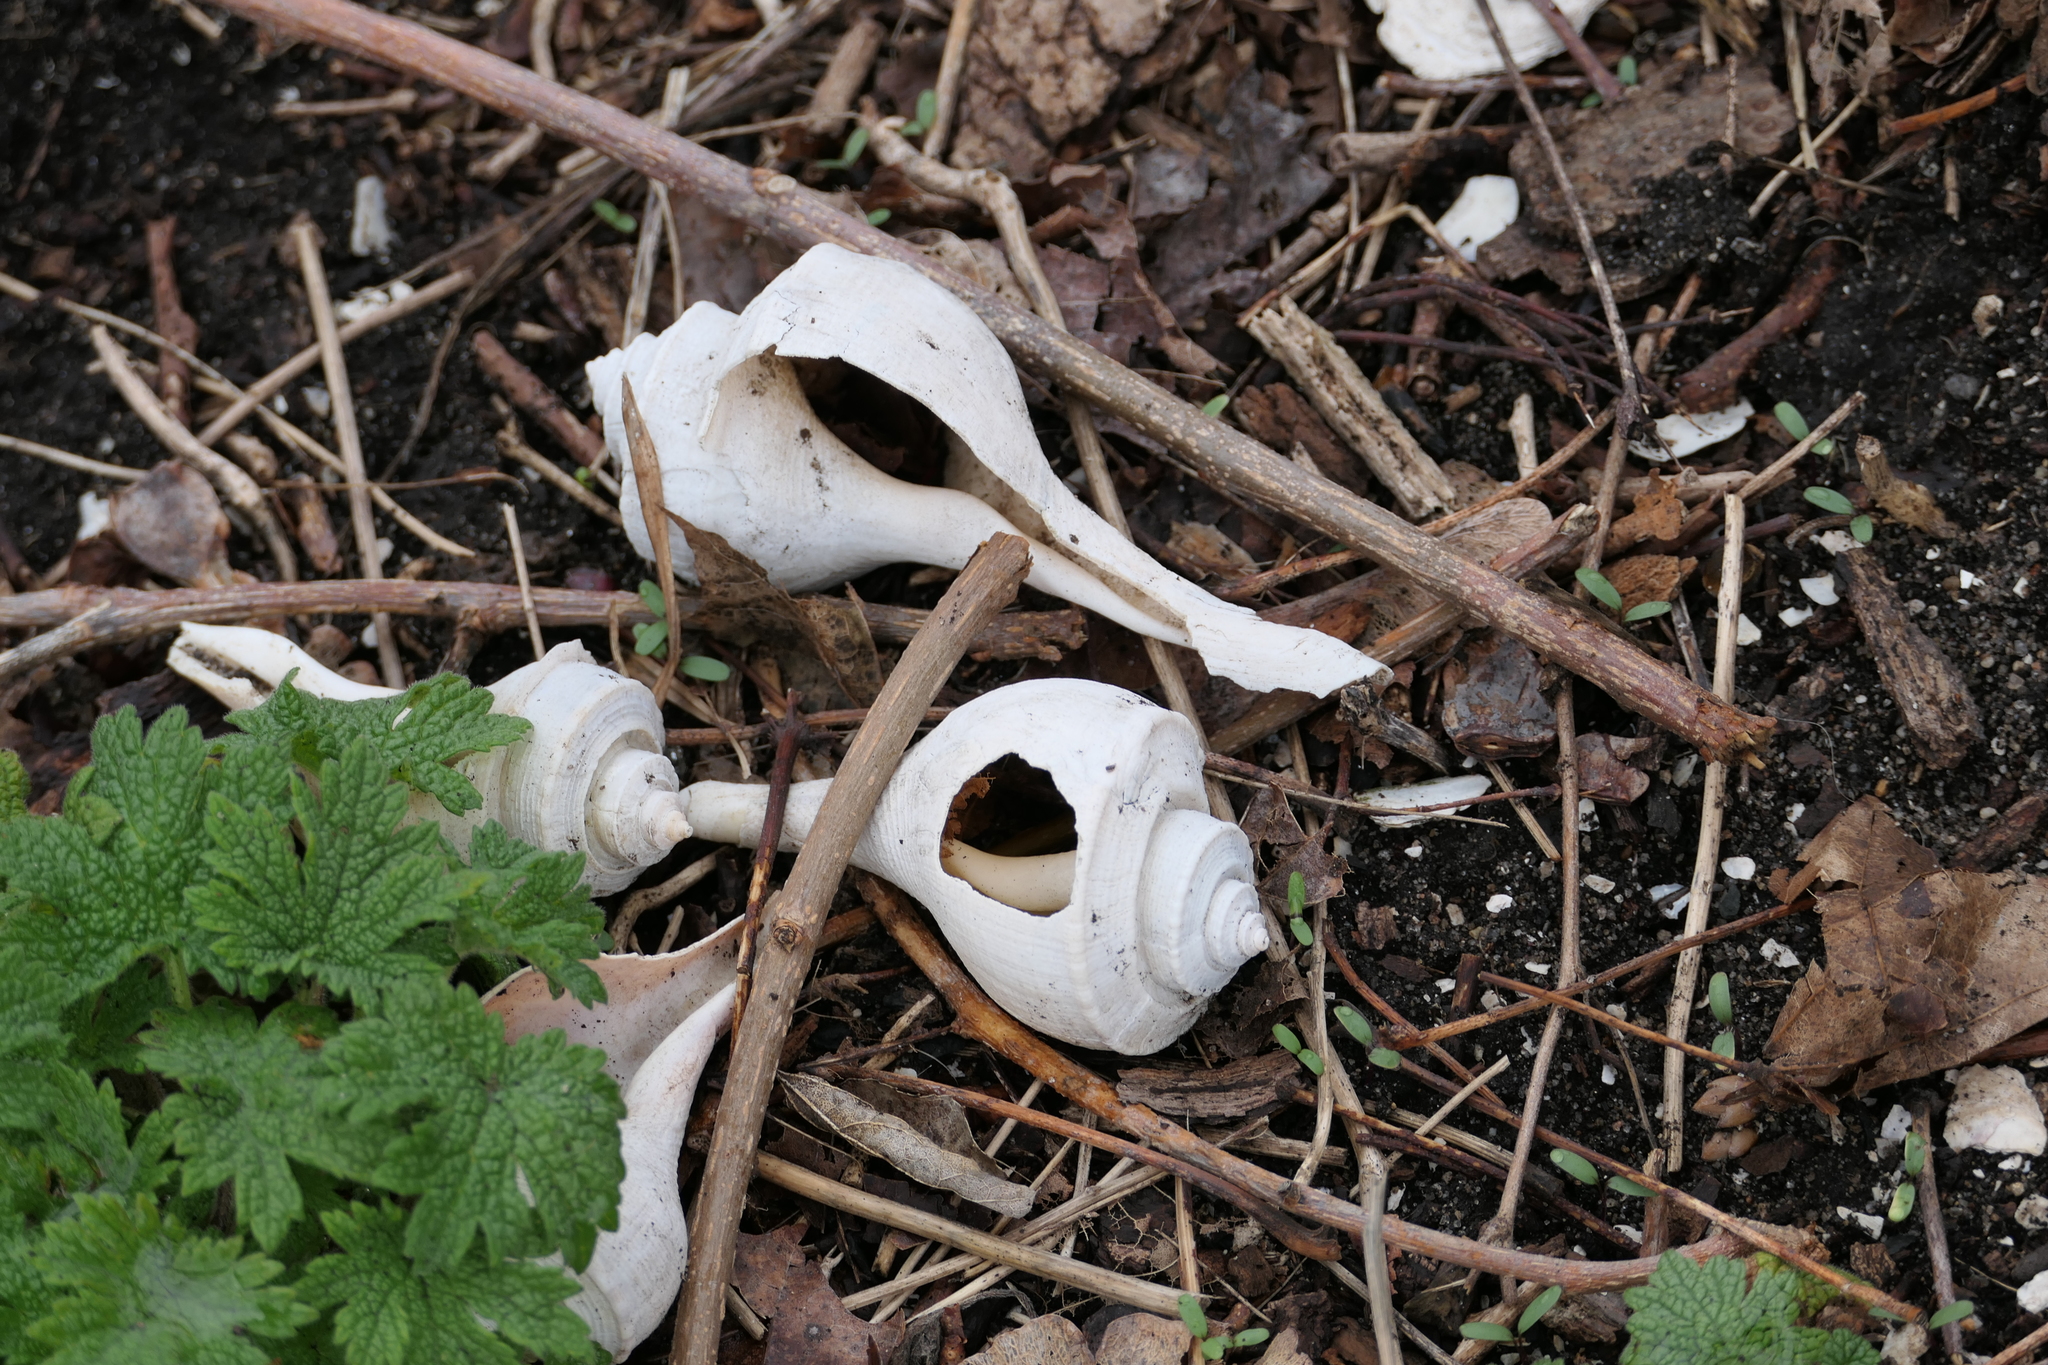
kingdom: Animalia
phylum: Mollusca
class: Gastropoda
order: Neogastropoda
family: Busyconidae
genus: Busycotypus
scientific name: Busycotypus canaliculatus
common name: Channeled whelk
